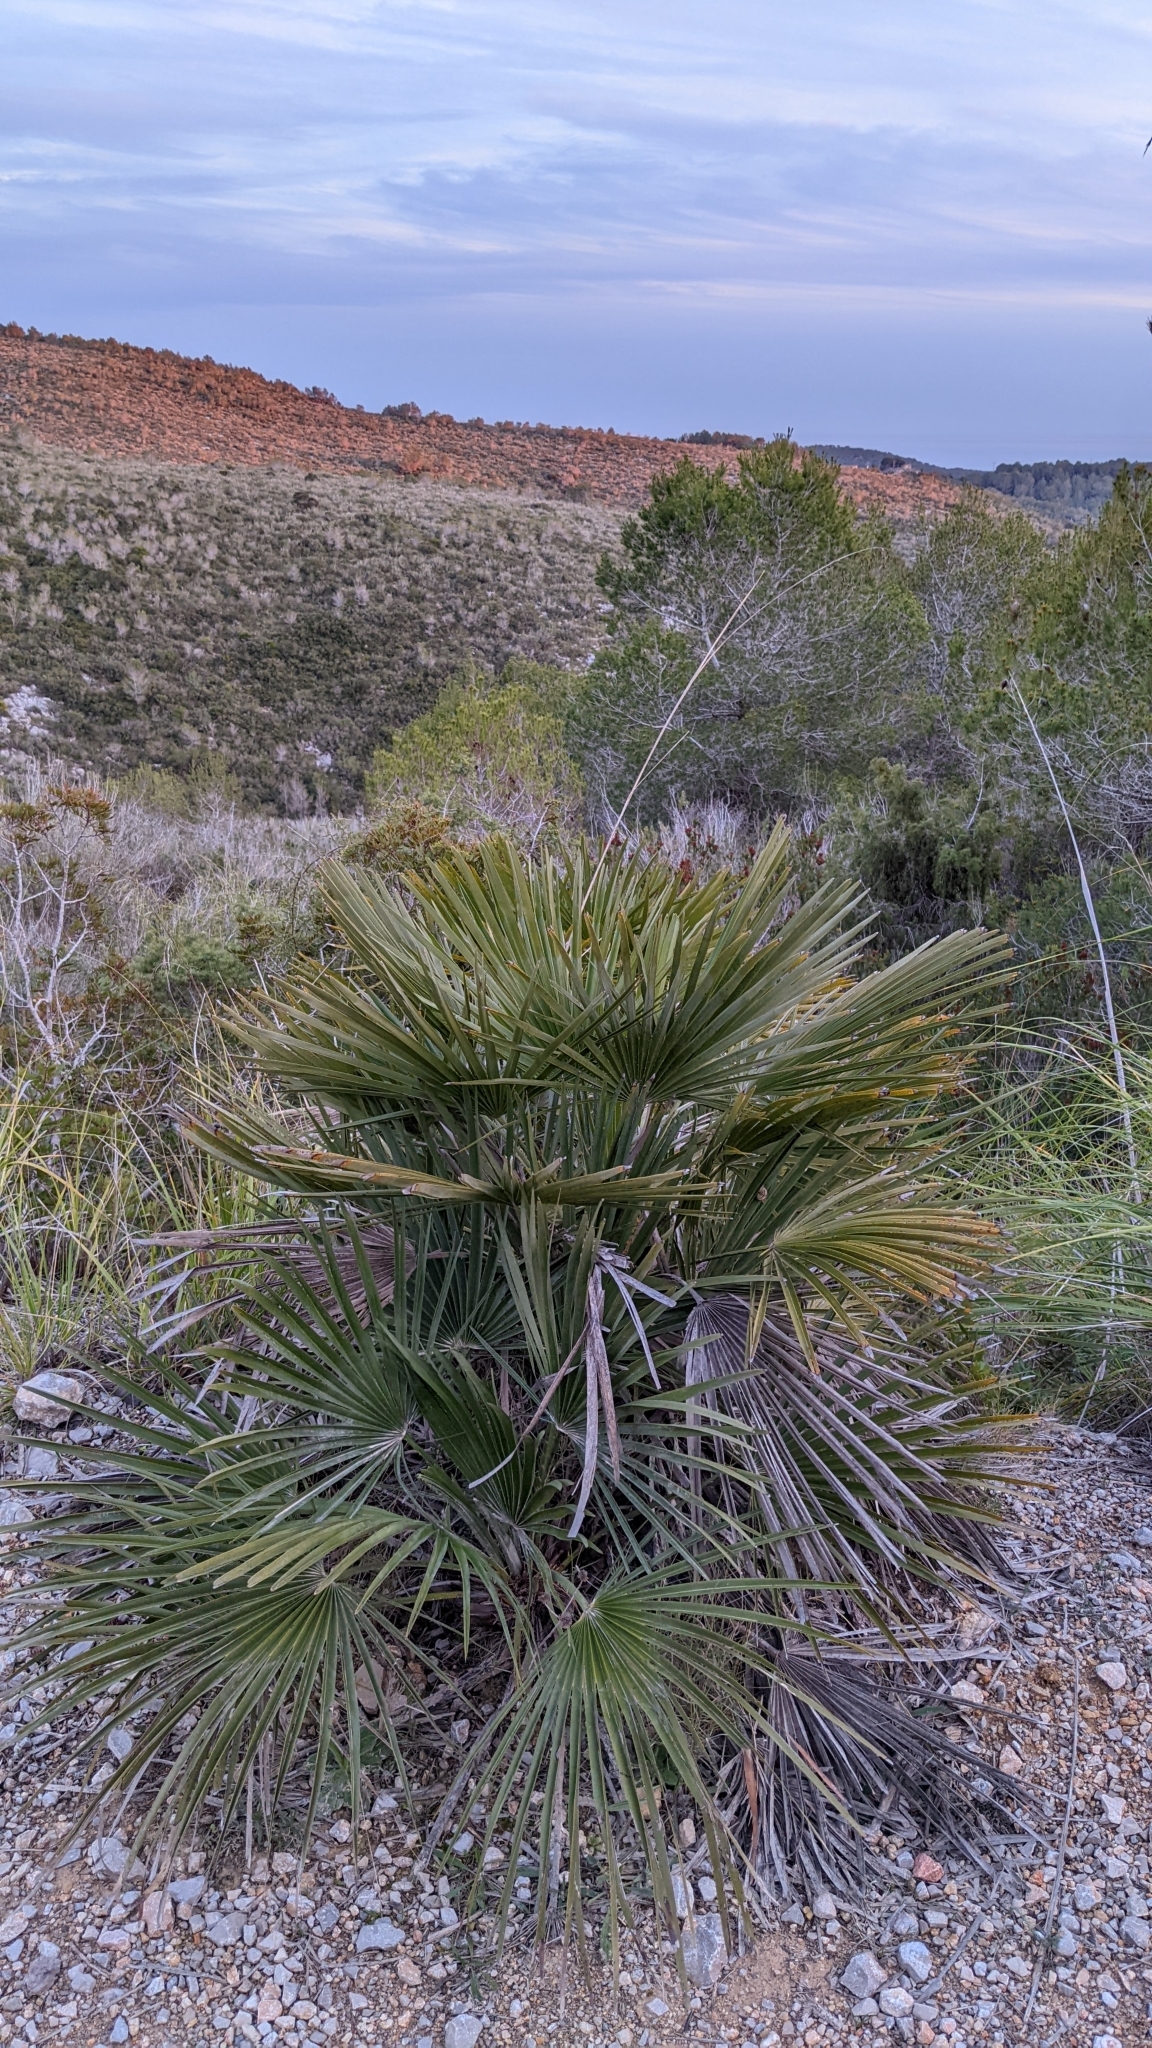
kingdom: Plantae
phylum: Tracheophyta
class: Liliopsida
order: Arecales
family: Arecaceae
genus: Chamaerops
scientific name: Chamaerops humilis
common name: Dwarf fan palm
